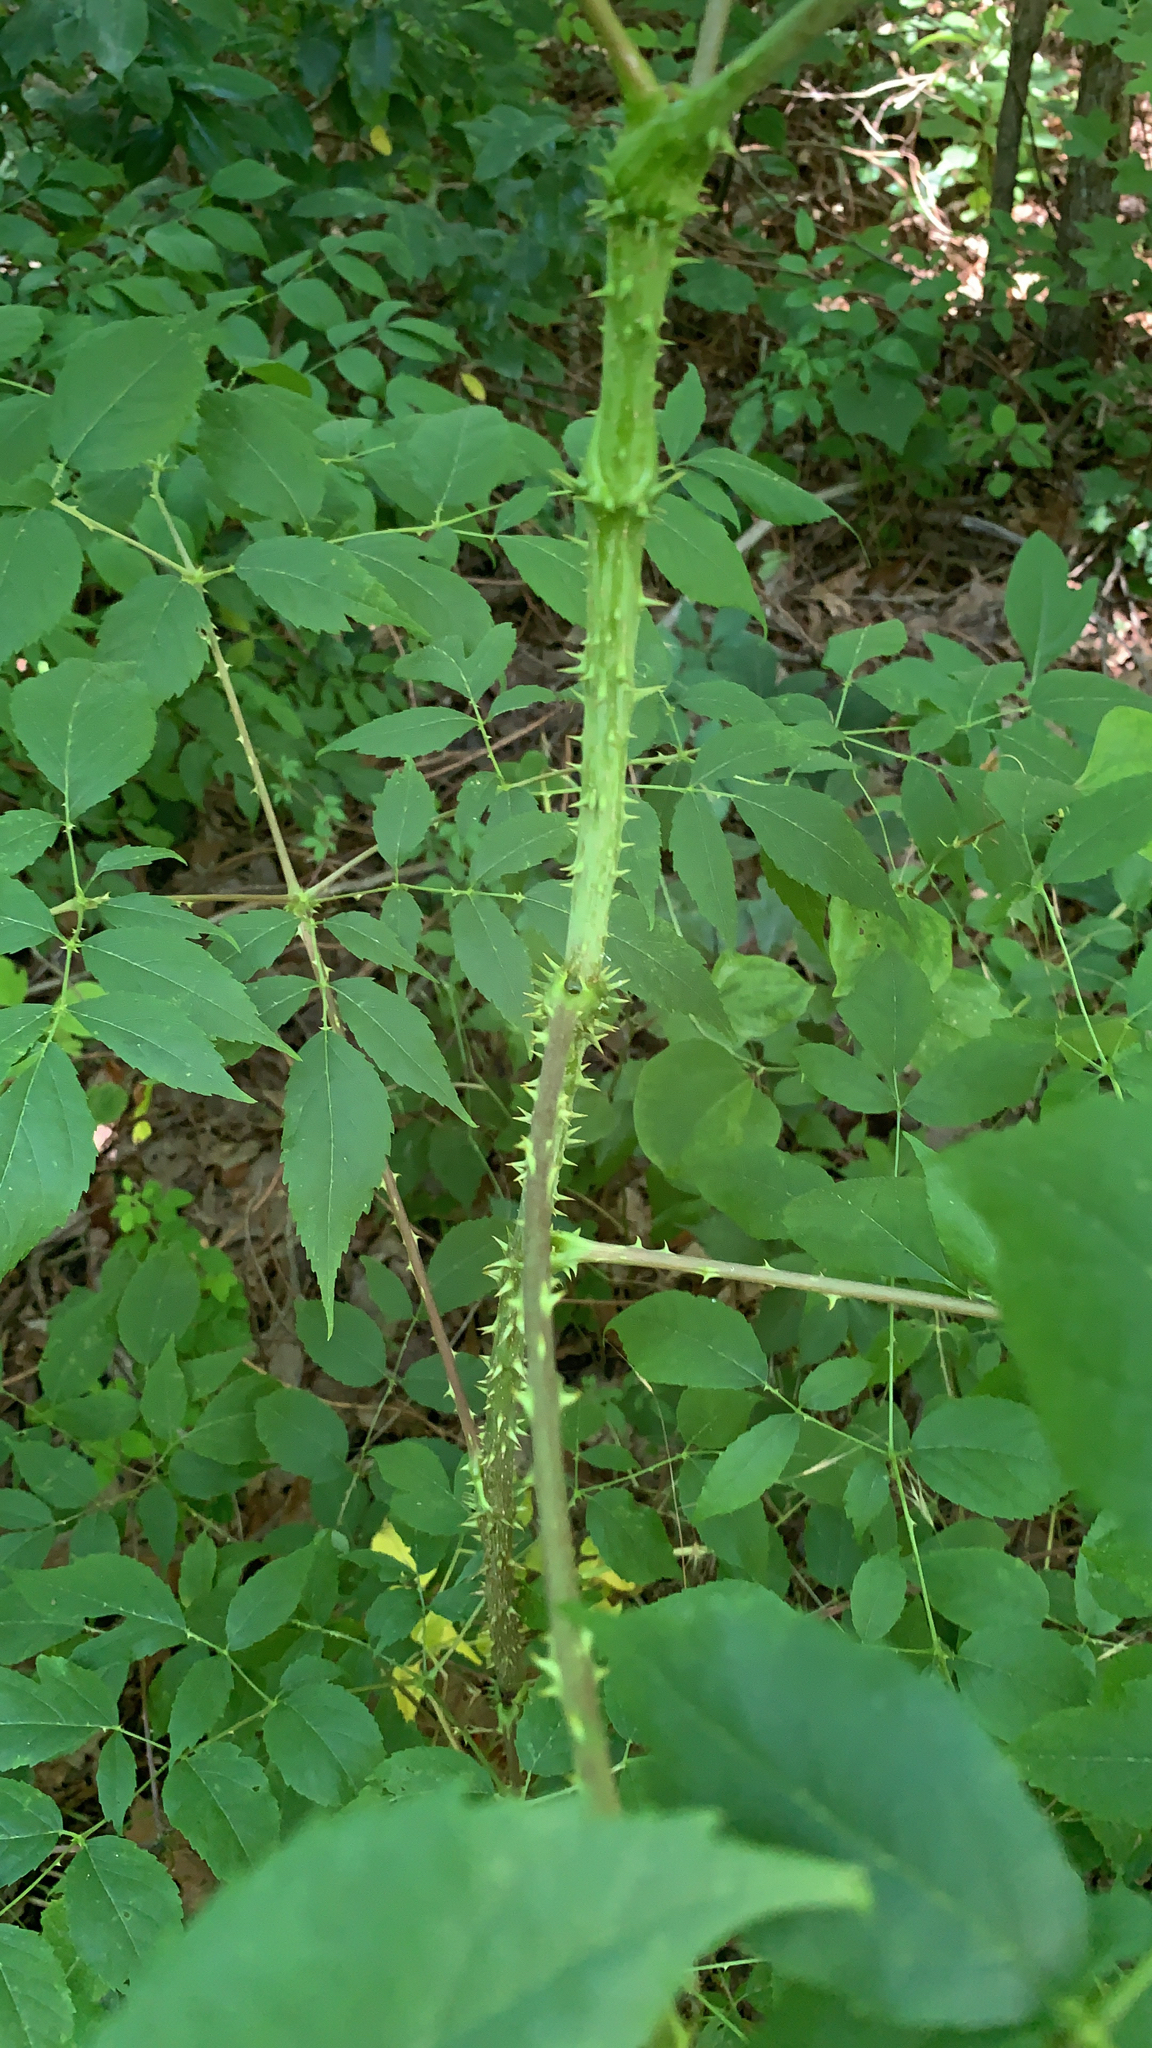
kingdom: Plantae
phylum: Tracheophyta
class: Magnoliopsida
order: Apiales
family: Araliaceae
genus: Aralia
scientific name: Aralia spinosa
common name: Hercules'-club
